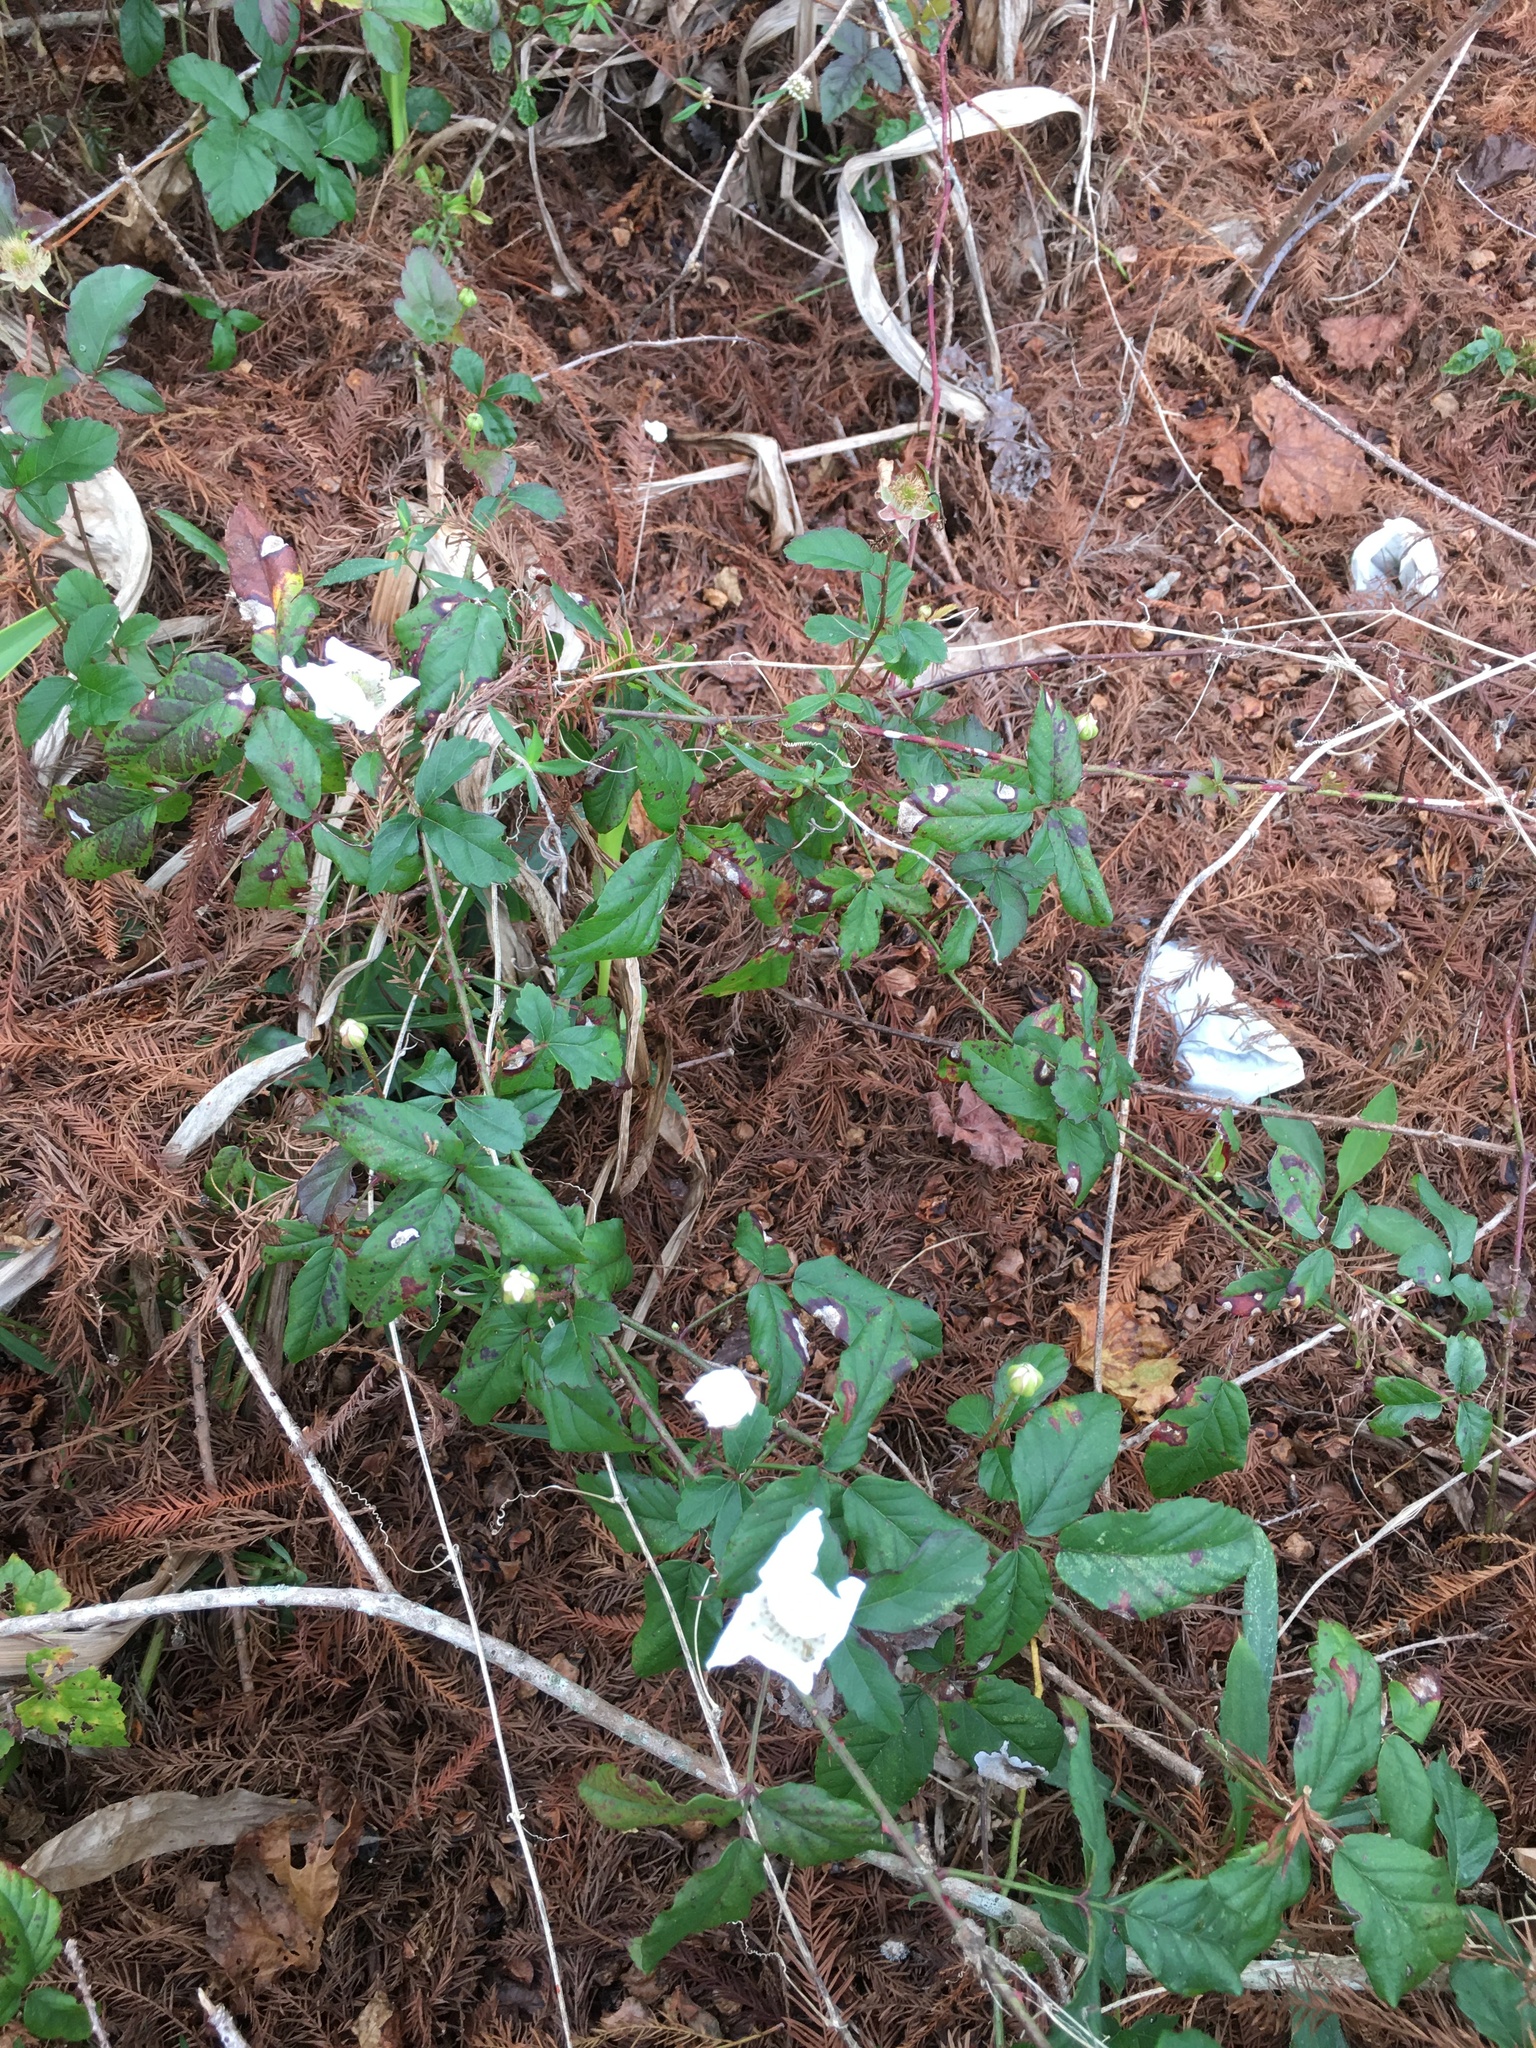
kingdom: Plantae
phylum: Tracheophyta
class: Magnoliopsida
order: Rosales
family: Rosaceae
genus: Rubus
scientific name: Rubus cuneifolius
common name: American bramble
